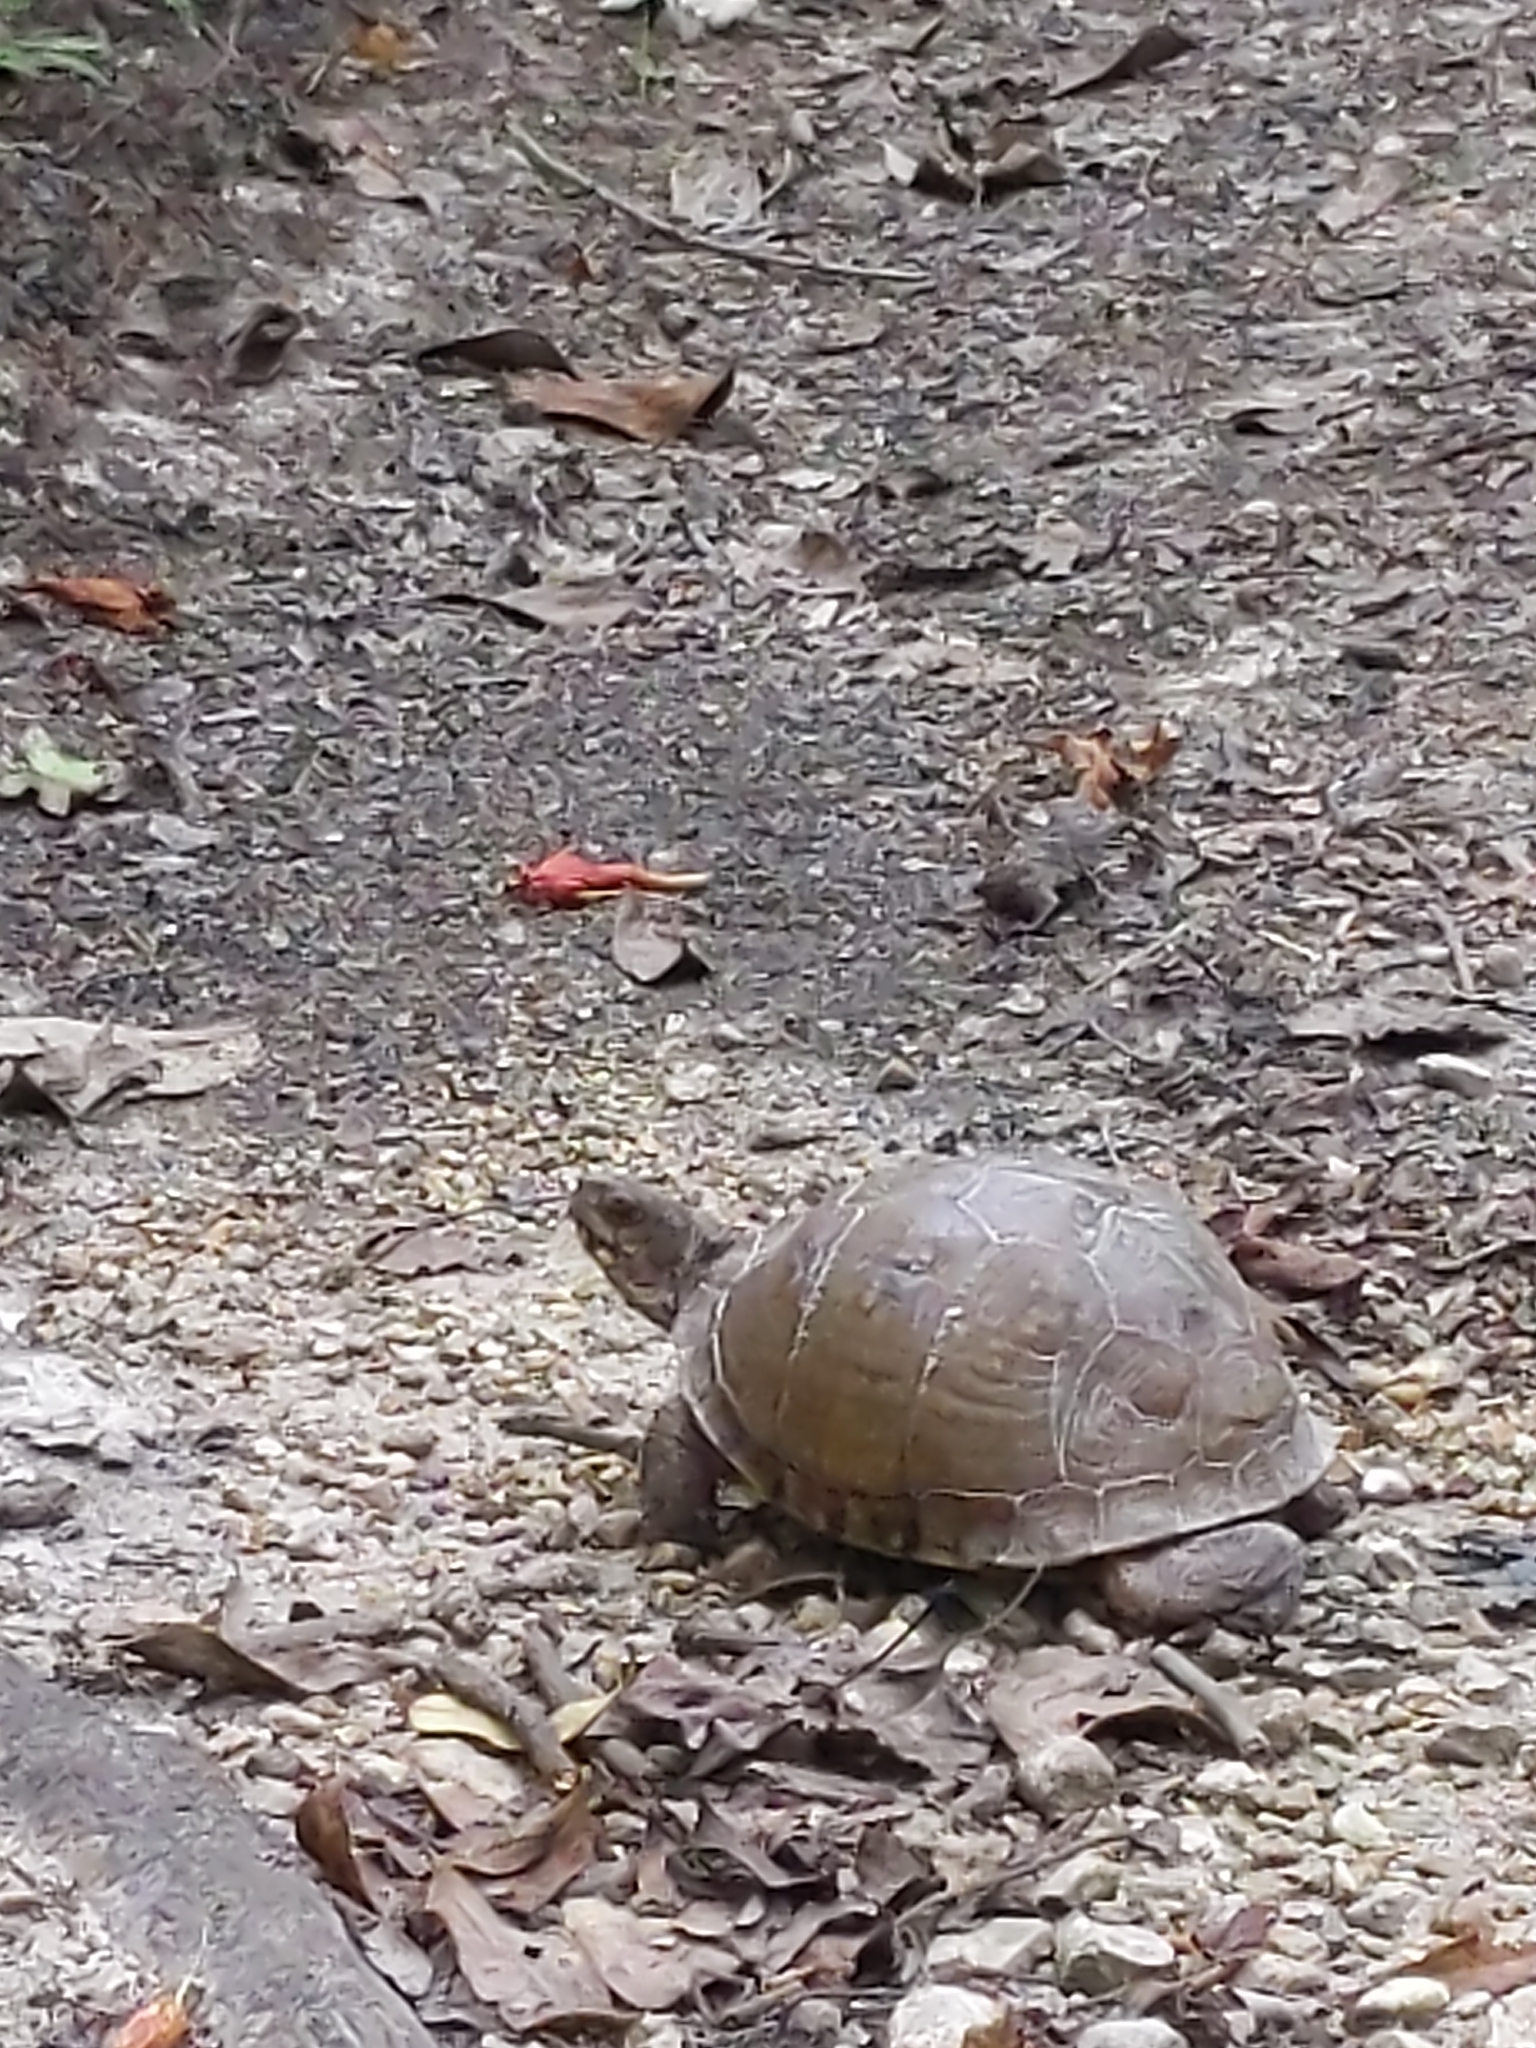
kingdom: Animalia
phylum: Chordata
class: Testudines
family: Emydidae
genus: Terrapene
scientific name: Terrapene carolina
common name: Common box turtle
